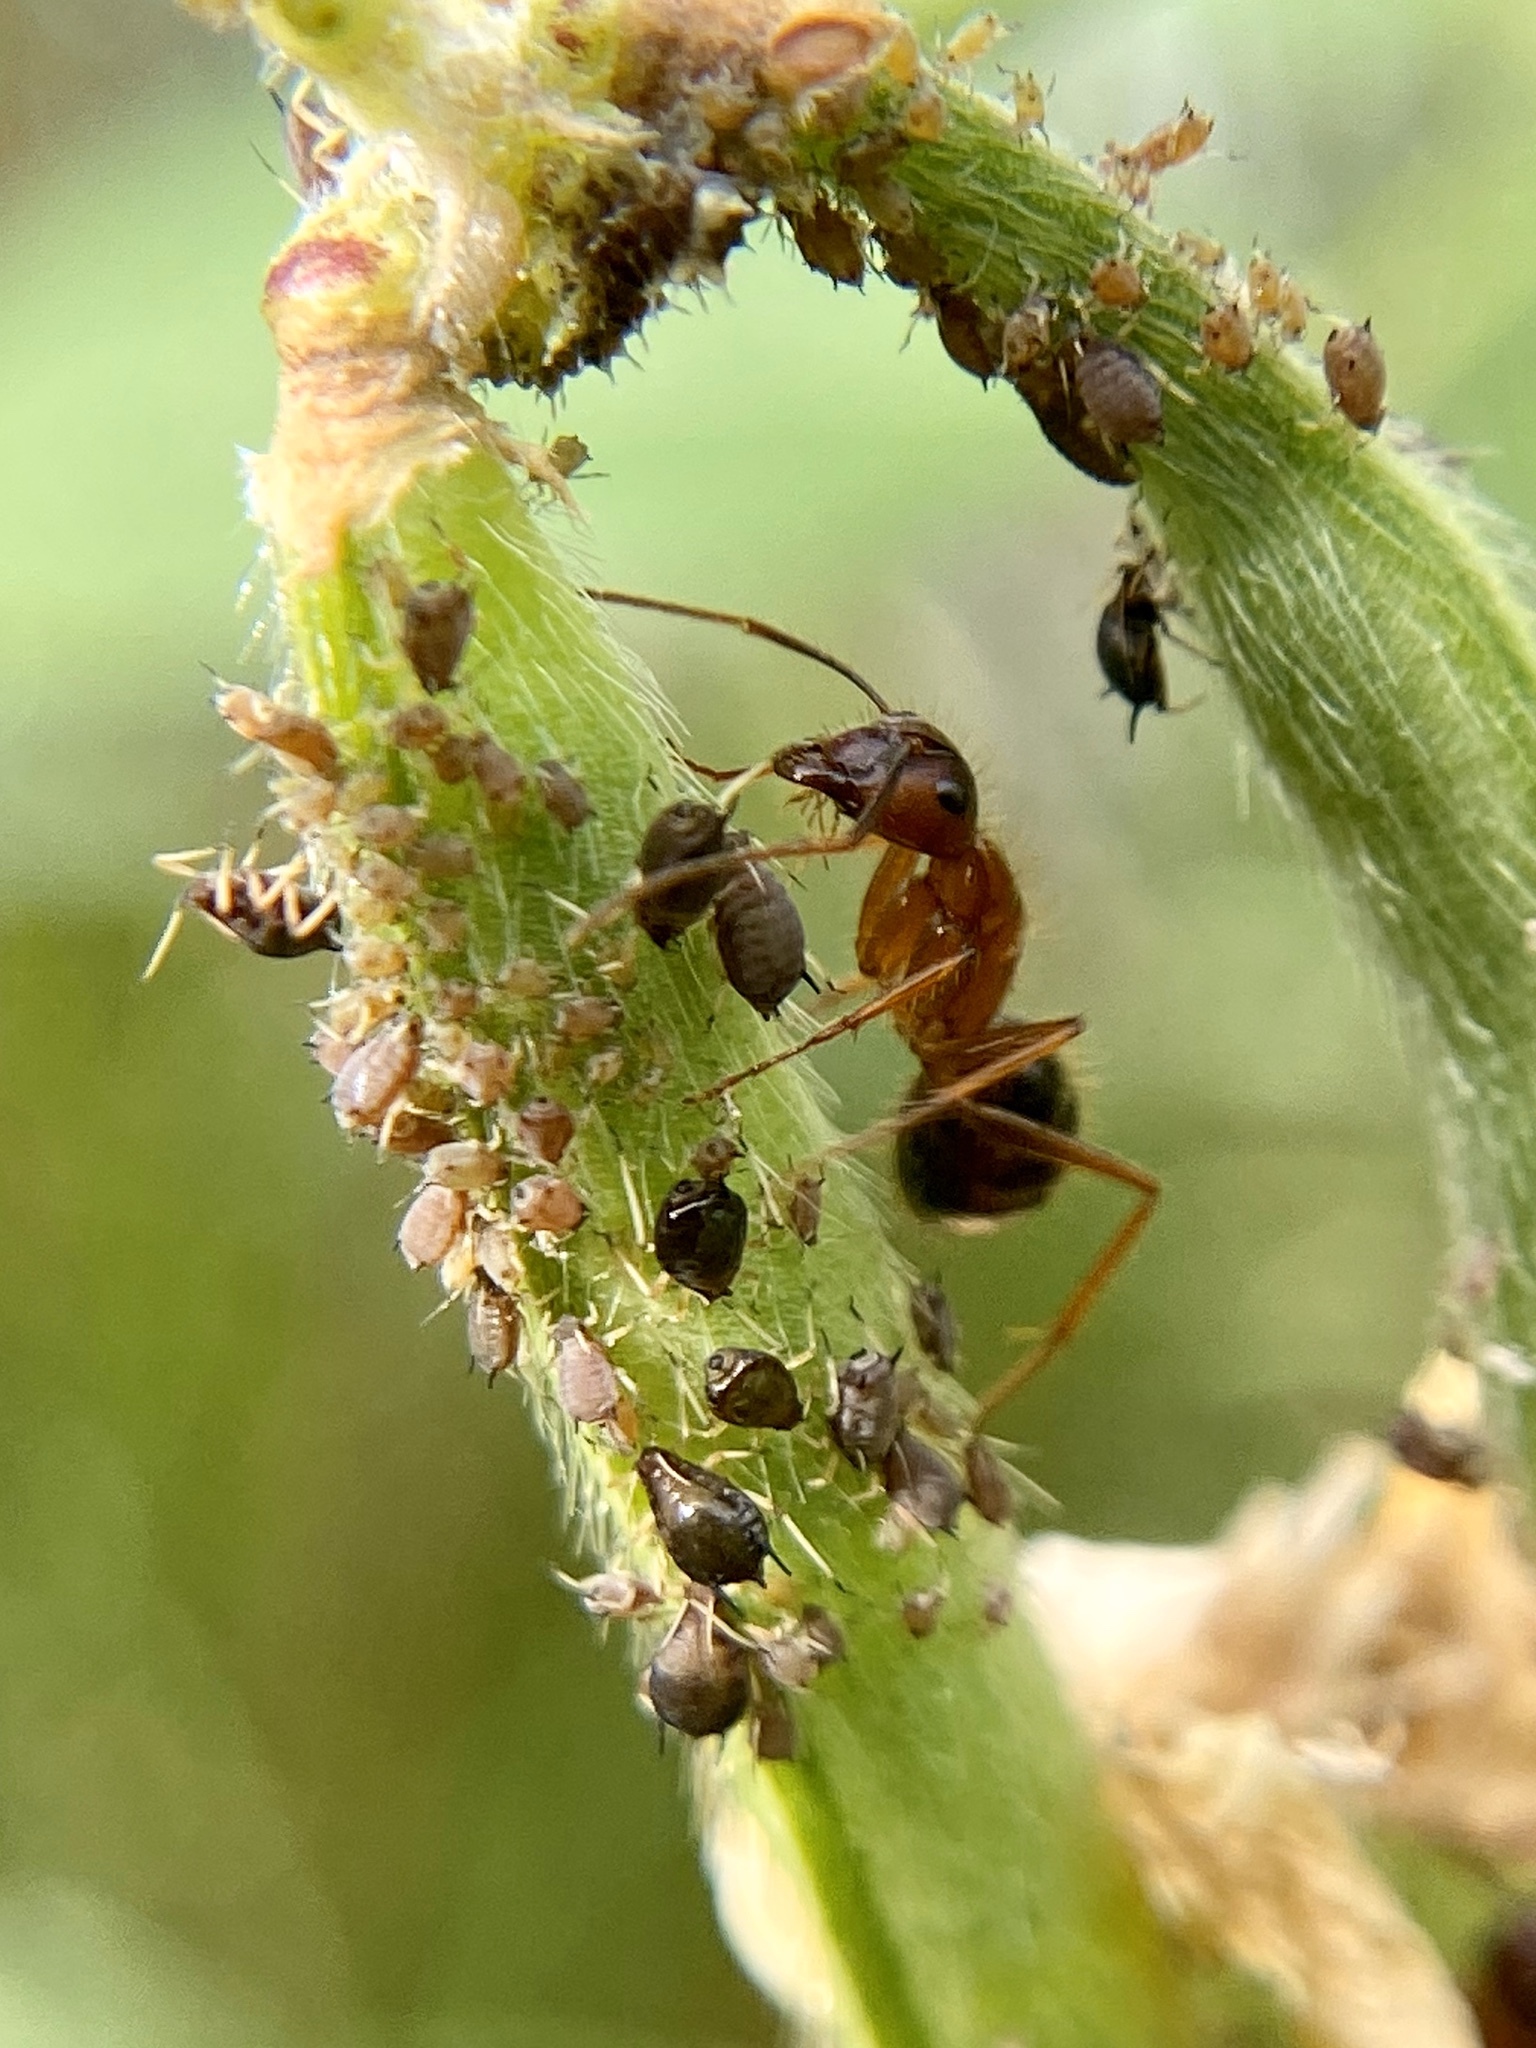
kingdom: Animalia
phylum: Arthropoda
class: Insecta
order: Hymenoptera
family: Formicidae
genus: Camponotus
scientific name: Camponotus floridanus
